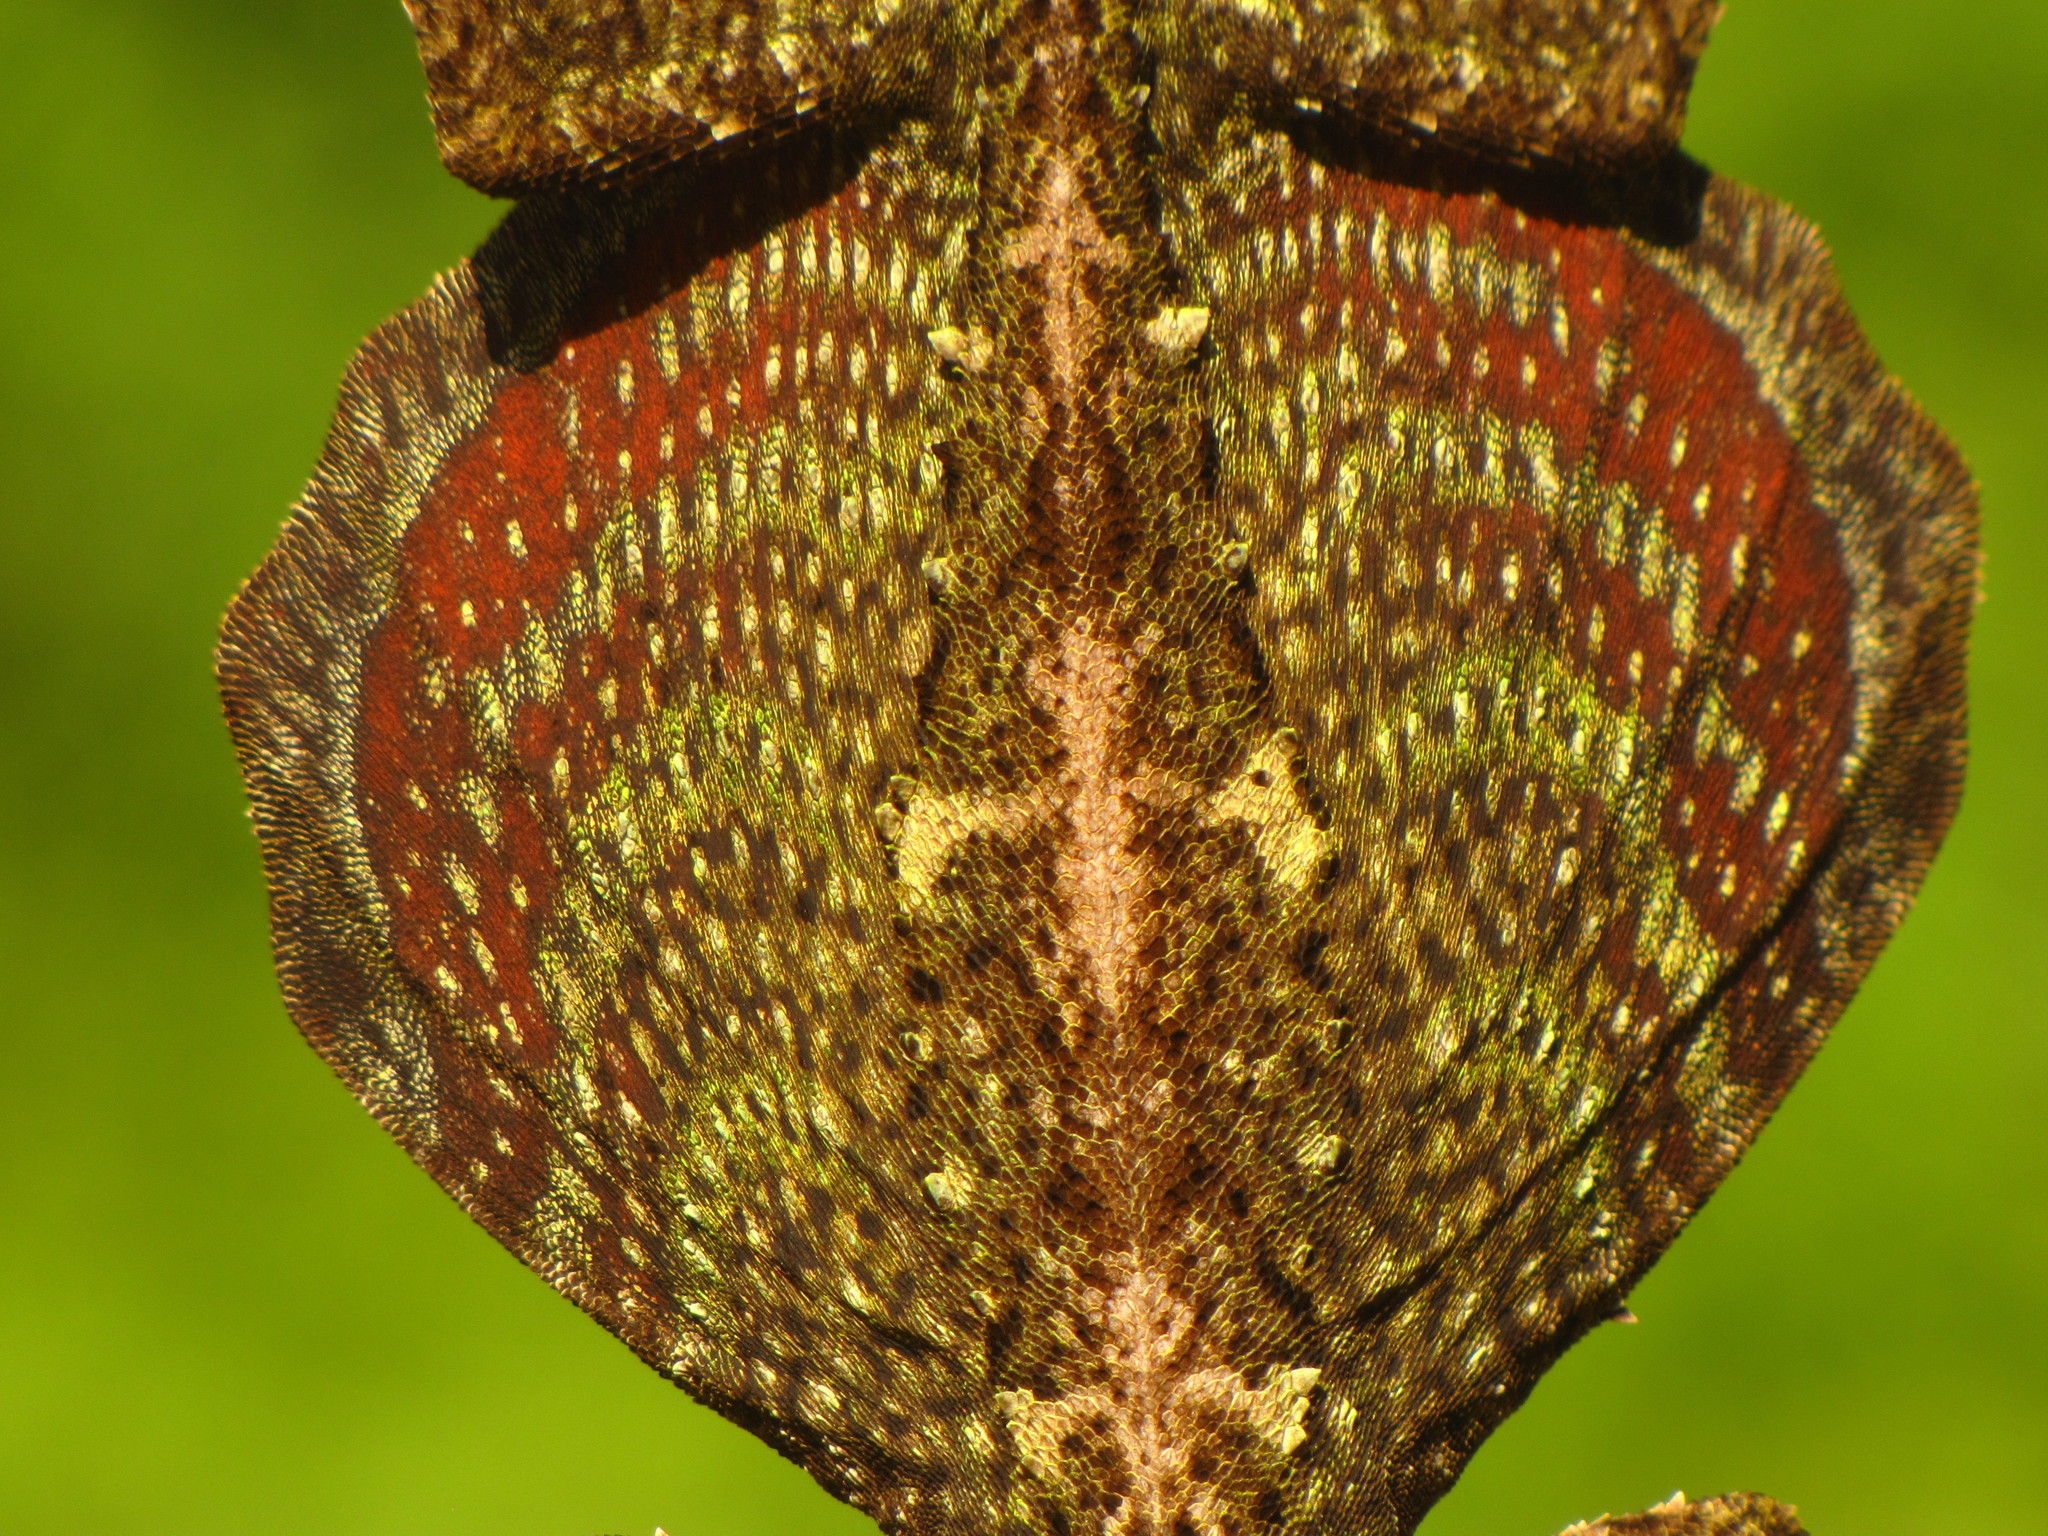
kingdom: Animalia
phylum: Chordata
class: Squamata
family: Agamidae
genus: Draco
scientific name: Draco norvillii
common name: Norvill's flying lizard
